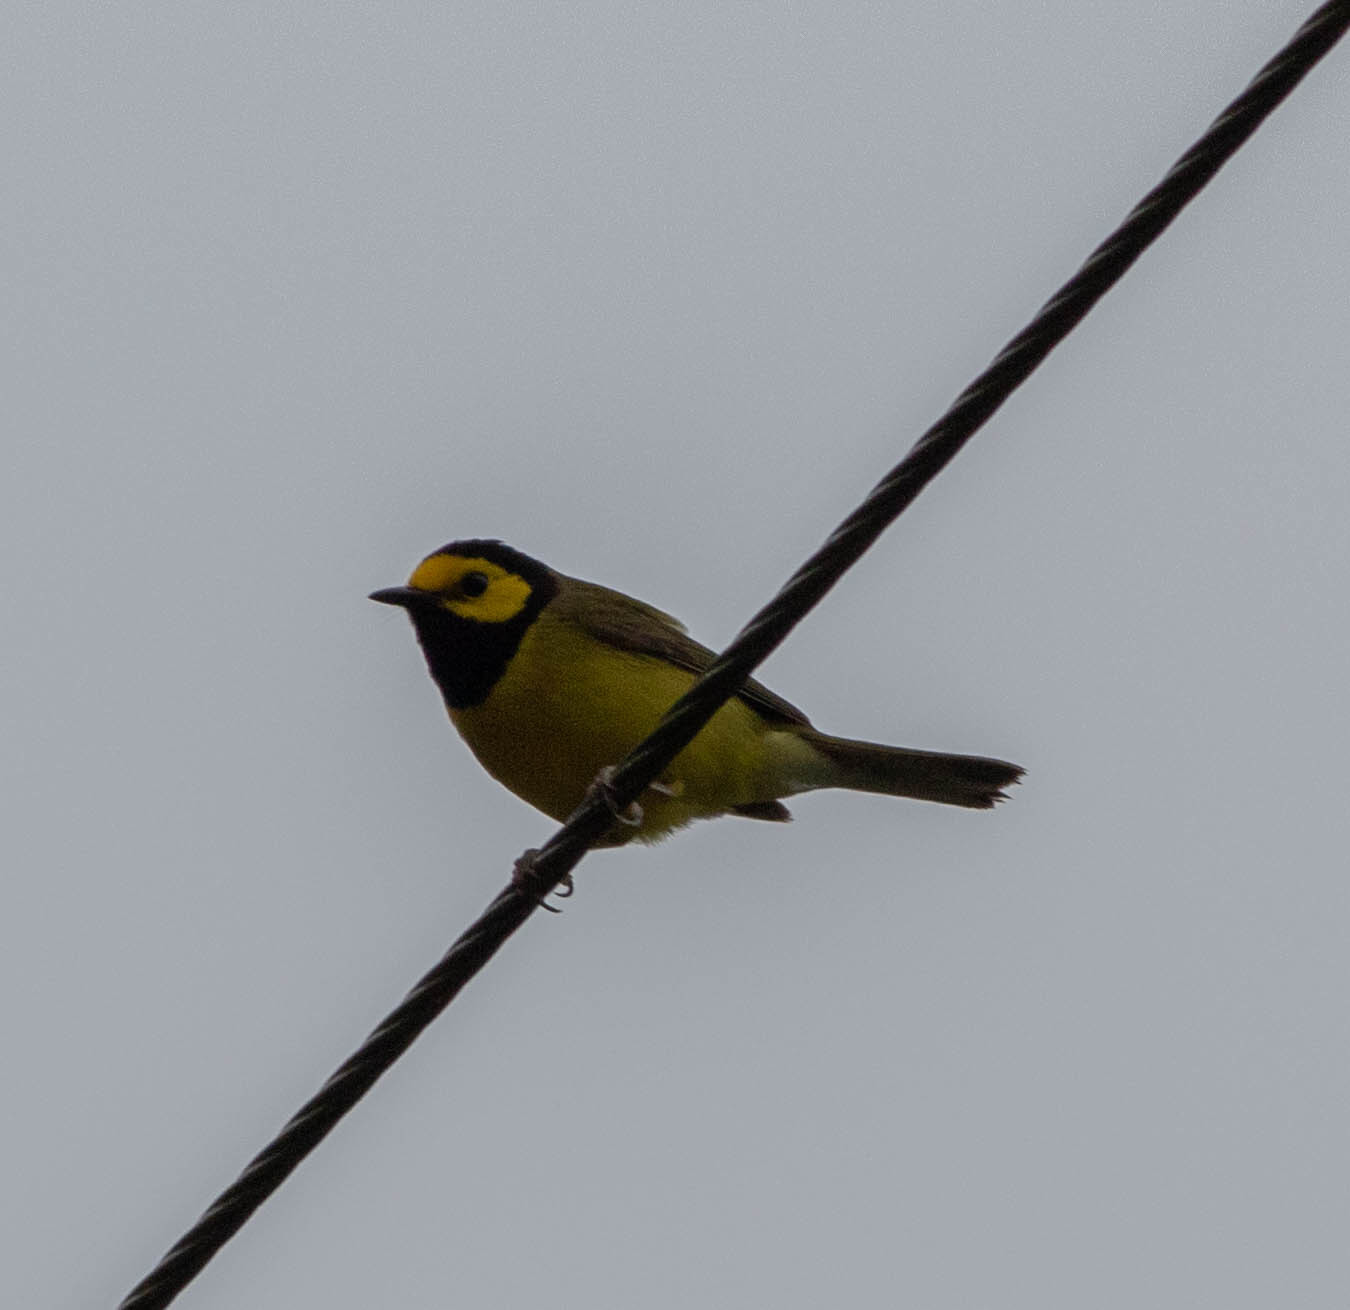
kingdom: Animalia
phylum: Chordata
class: Aves
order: Passeriformes
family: Parulidae
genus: Setophaga
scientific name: Setophaga citrina
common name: Hooded warbler
